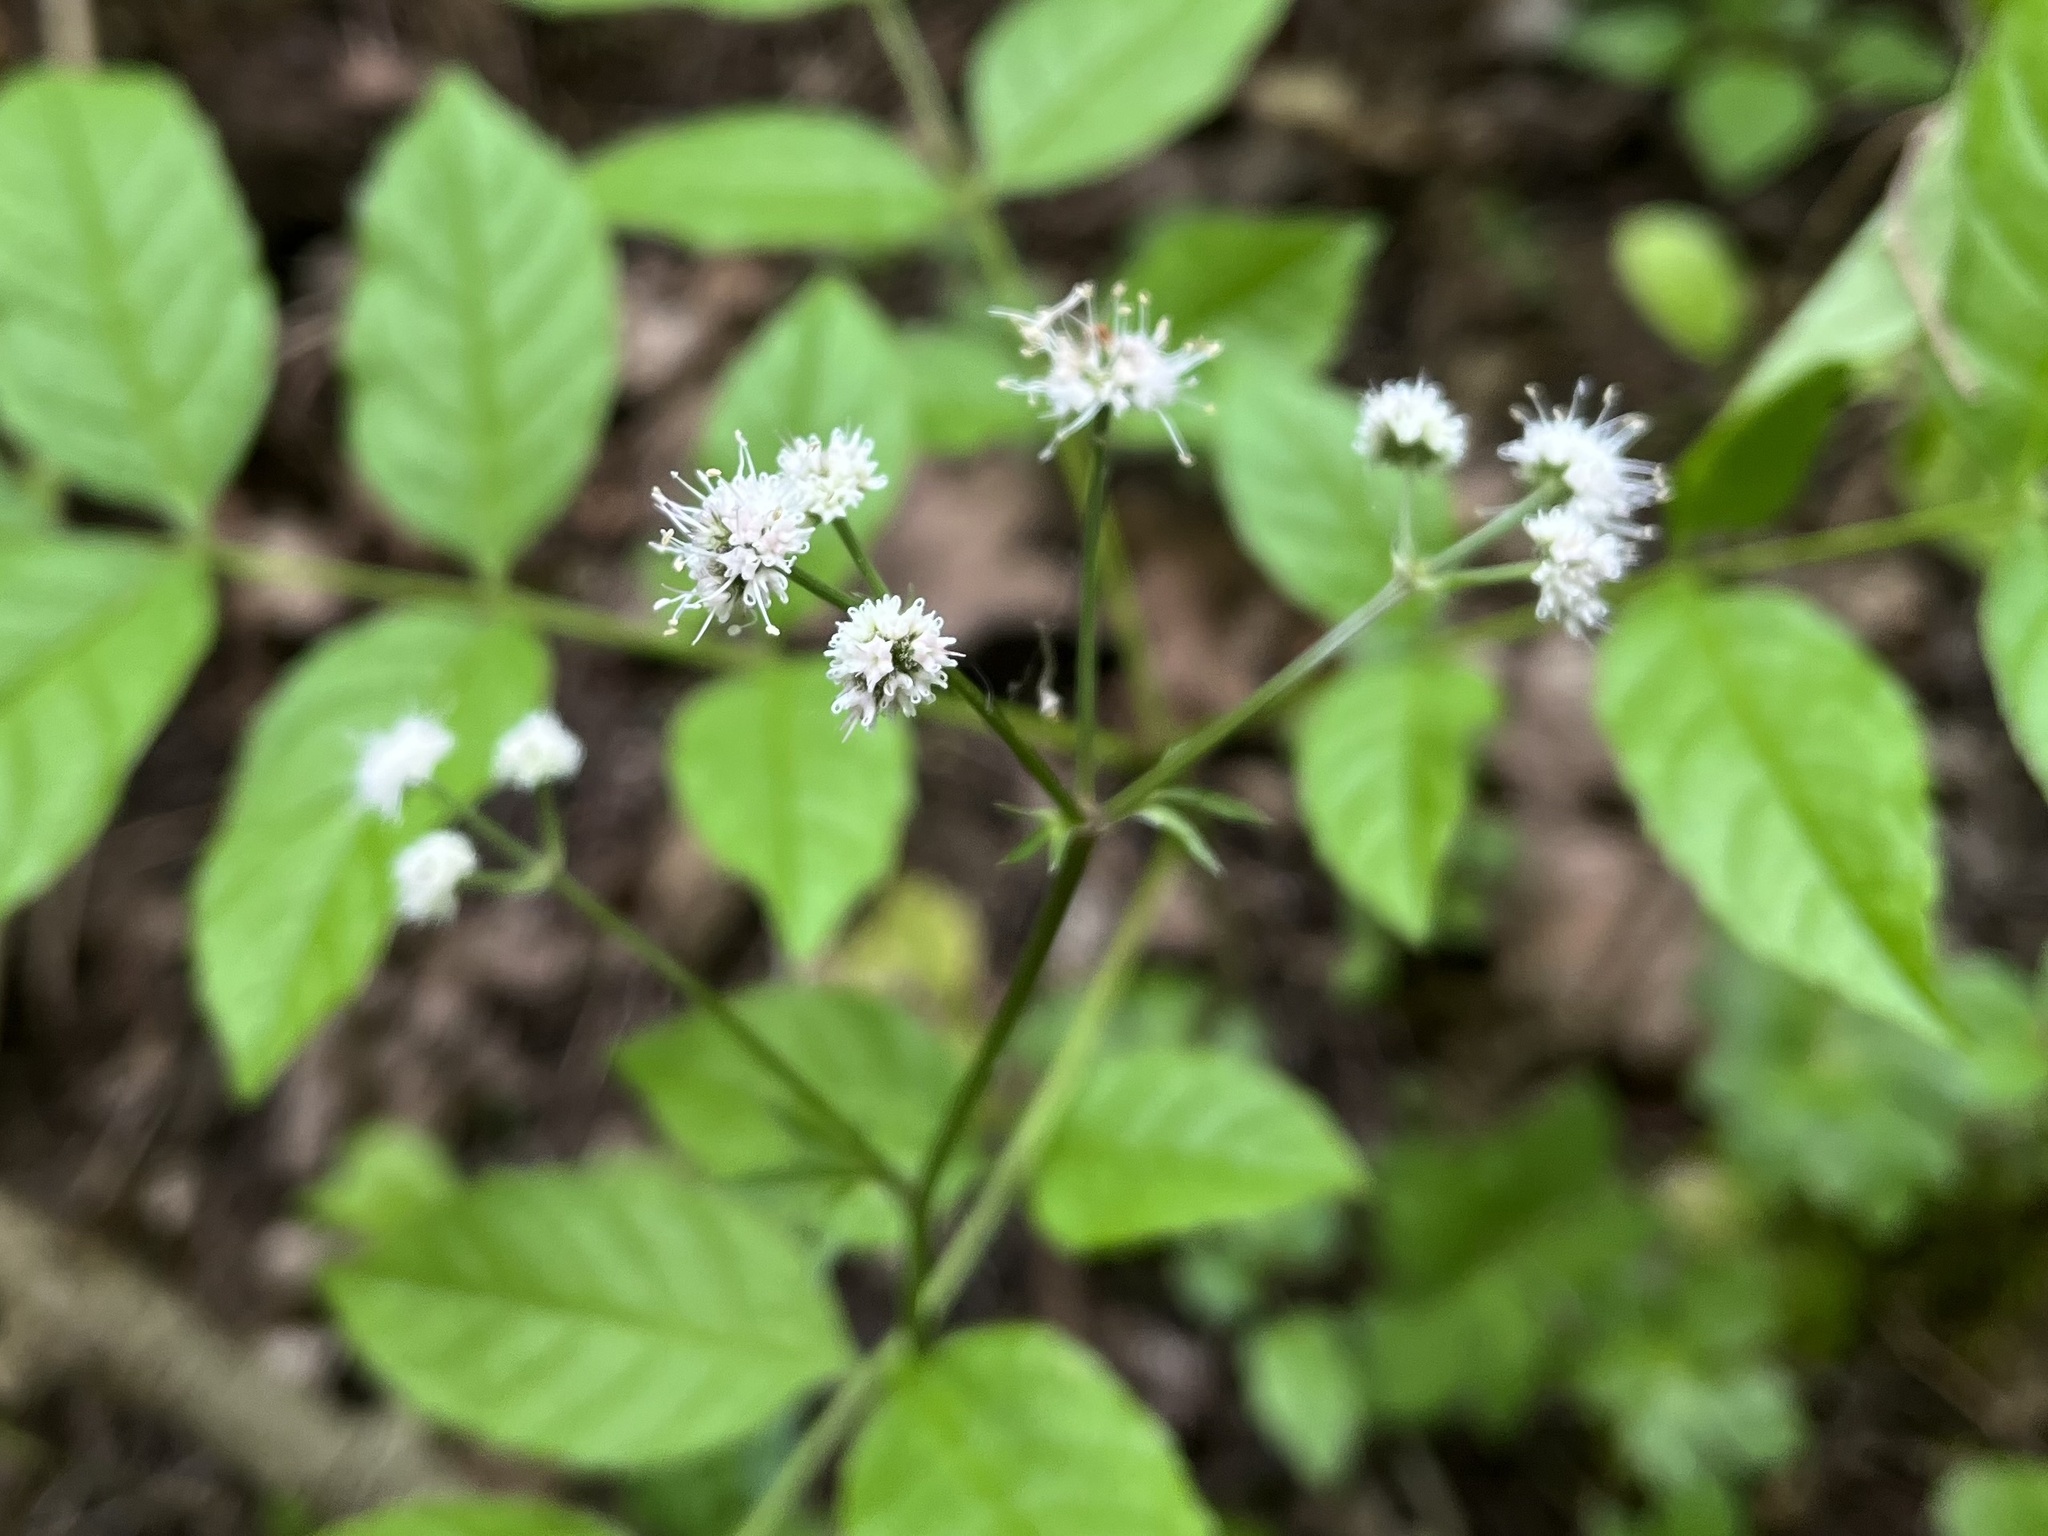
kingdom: Plantae
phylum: Tracheophyta
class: Magnoliopsida
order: Apiales
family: Apiaceae
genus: Sanicula
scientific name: Sanicula europaea
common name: Sanicle
